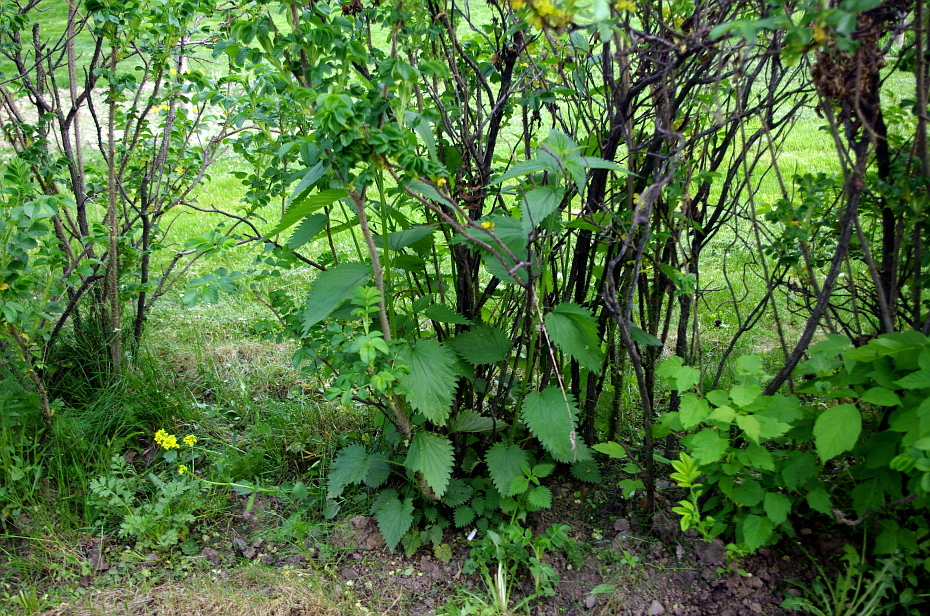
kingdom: Plantae
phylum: Tracheophyta
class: Magnoliopsida
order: Rosales
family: Urticaceae
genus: Urtica
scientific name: Urtica dioica
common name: Common nettle
